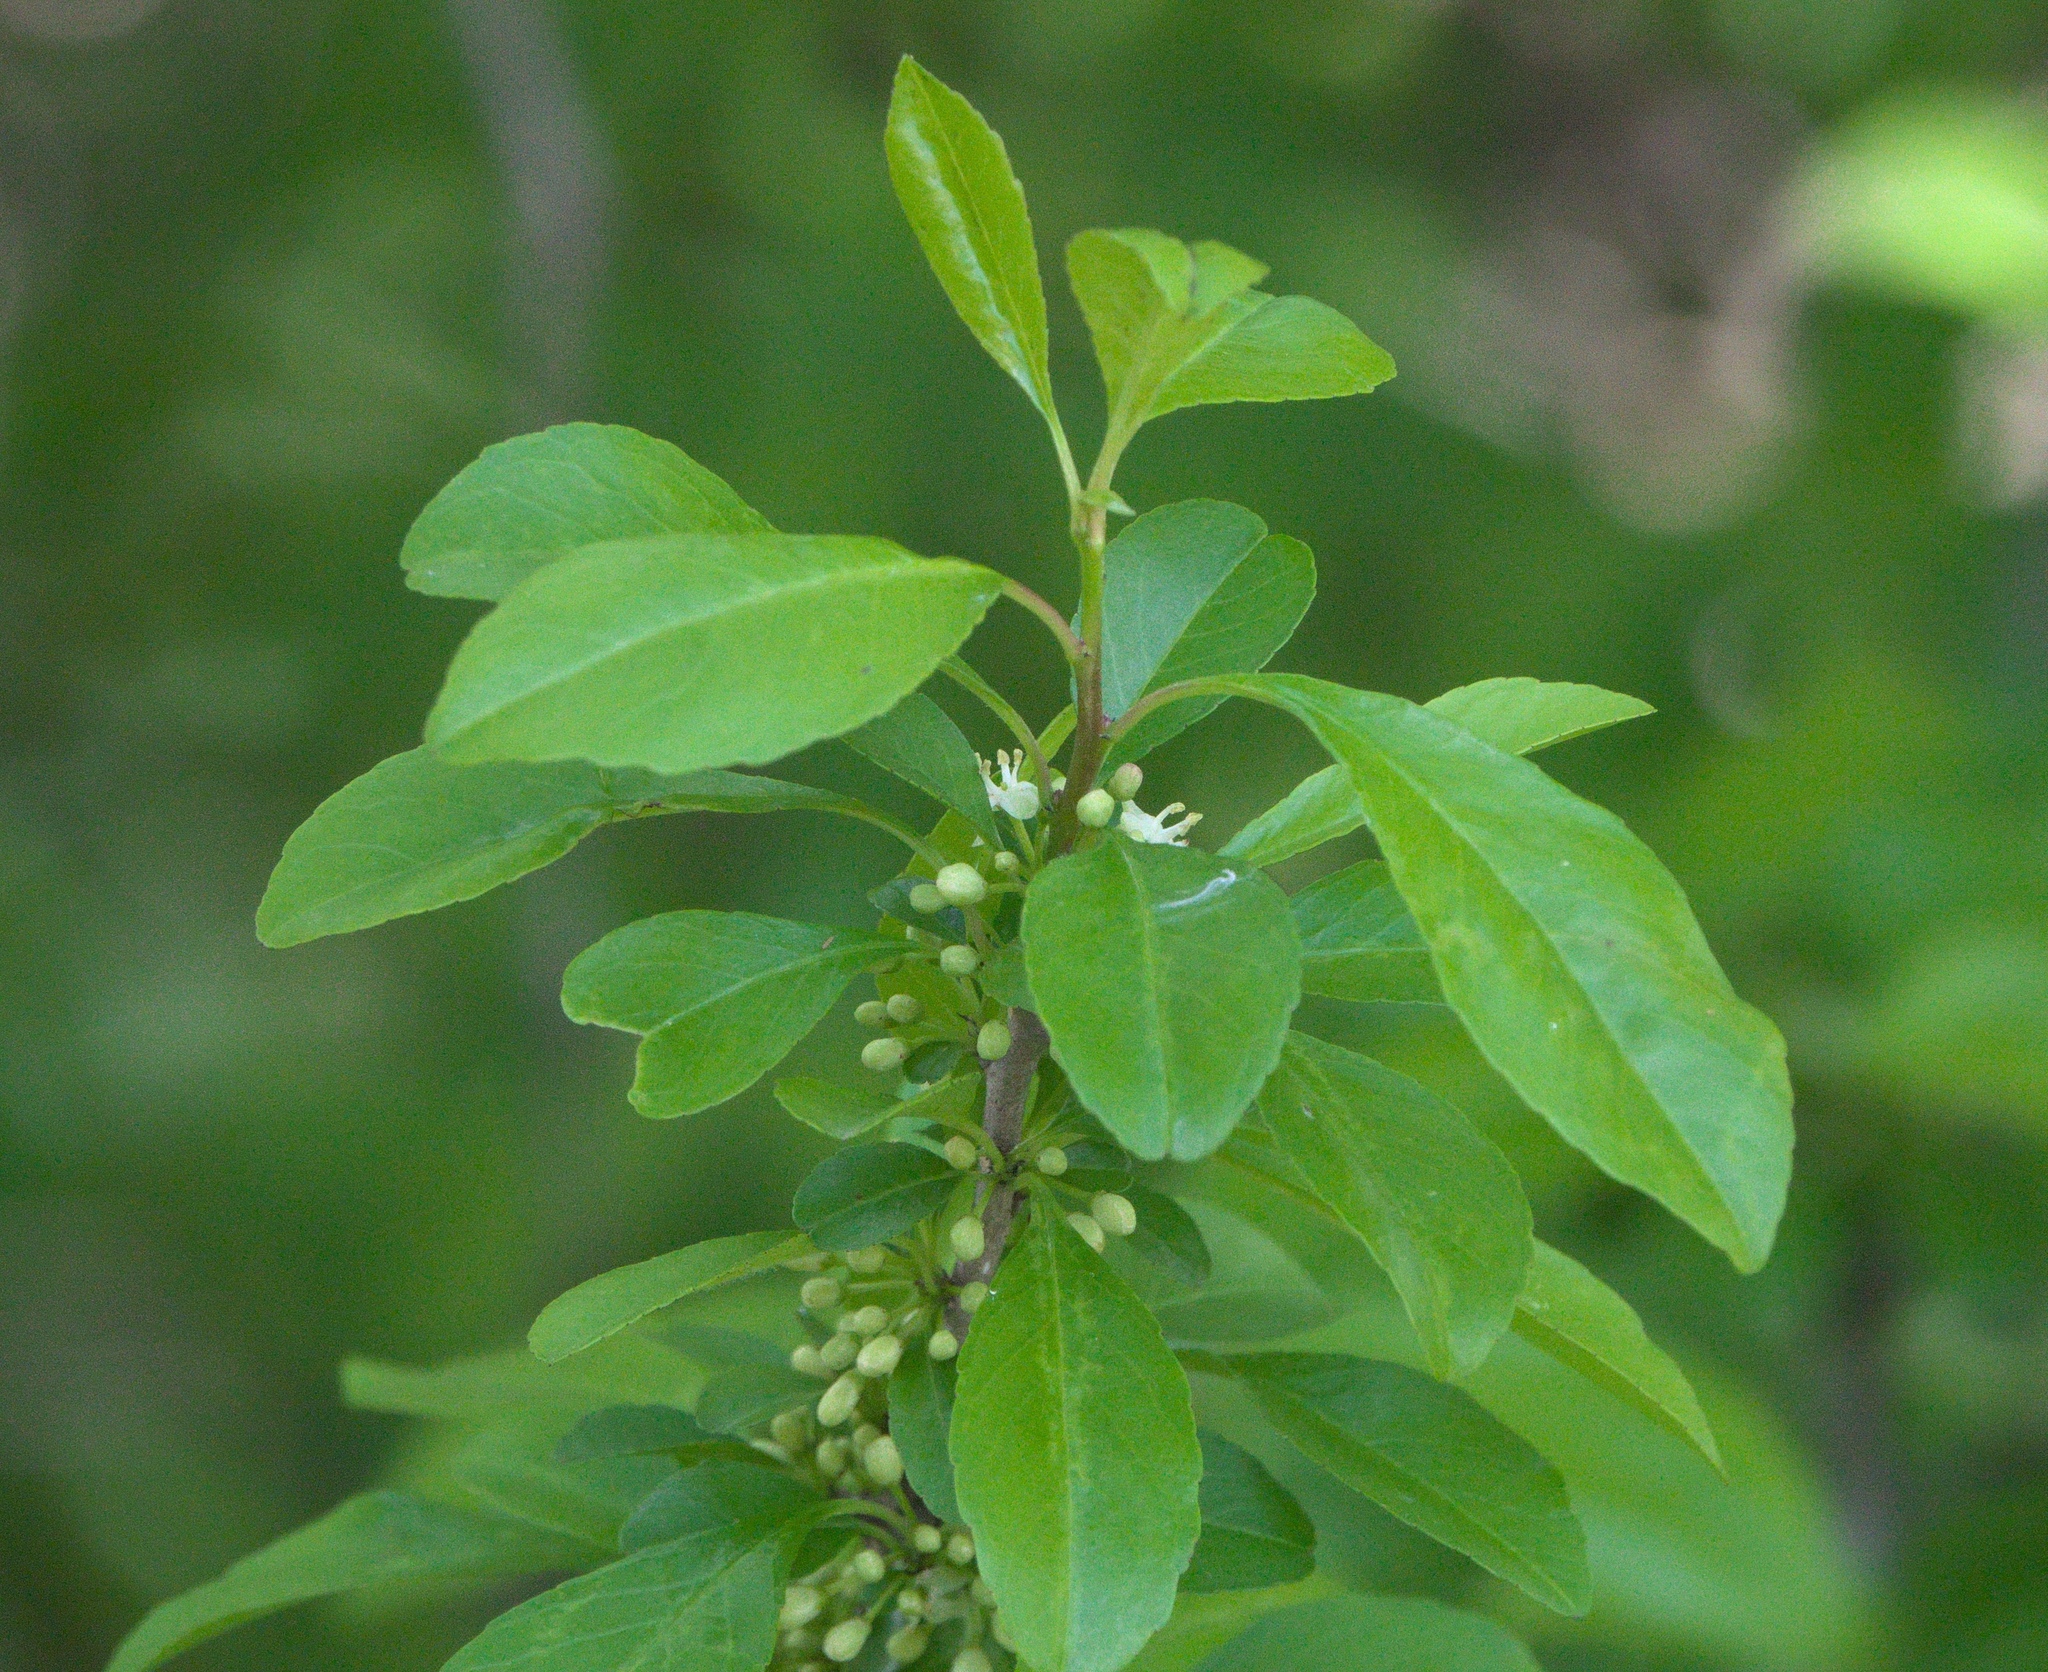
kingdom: Plantae
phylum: Tracheophyta
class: Magnoliopsida
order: Aquifoliales
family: Aquifoliaceae
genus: Ilex
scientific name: Ilex decidua
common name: Possum-haw
